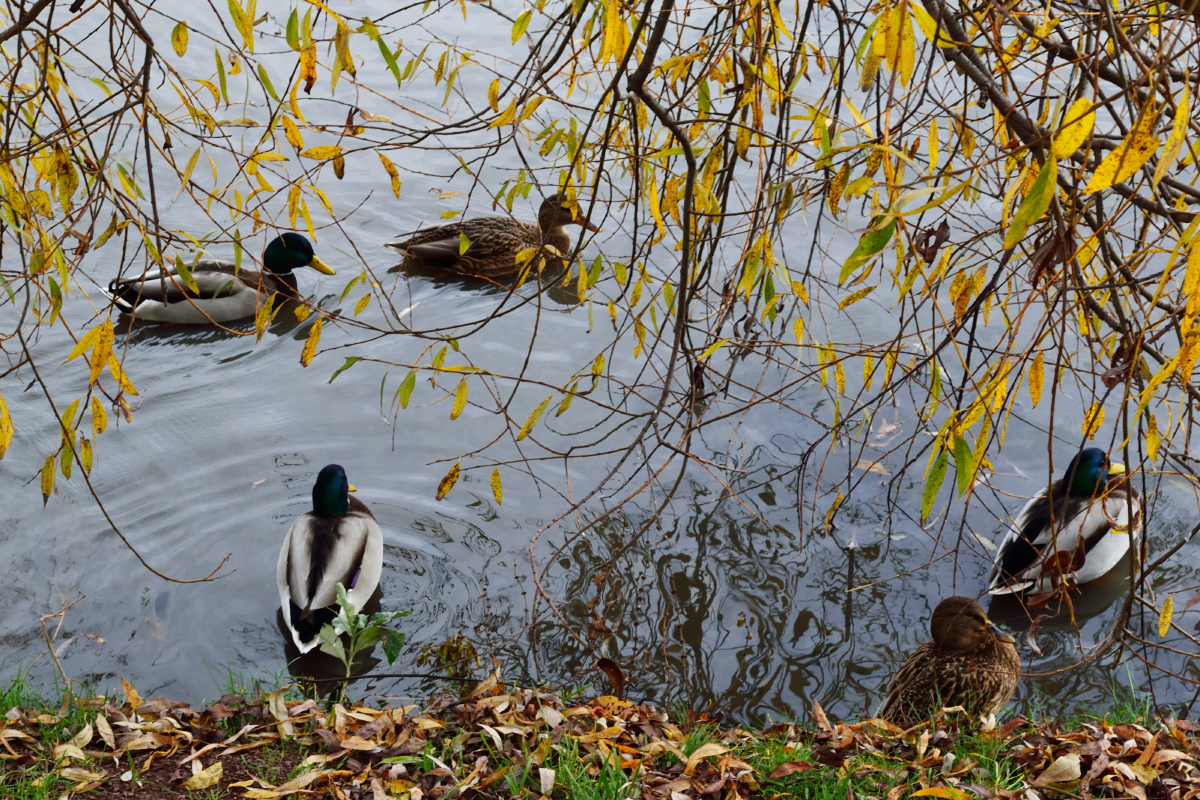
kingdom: Animalia
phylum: Chordata
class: Aves
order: Anseriformes
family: Anatidae
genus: Anas
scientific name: Anas platyrhynchos
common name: Mallard
